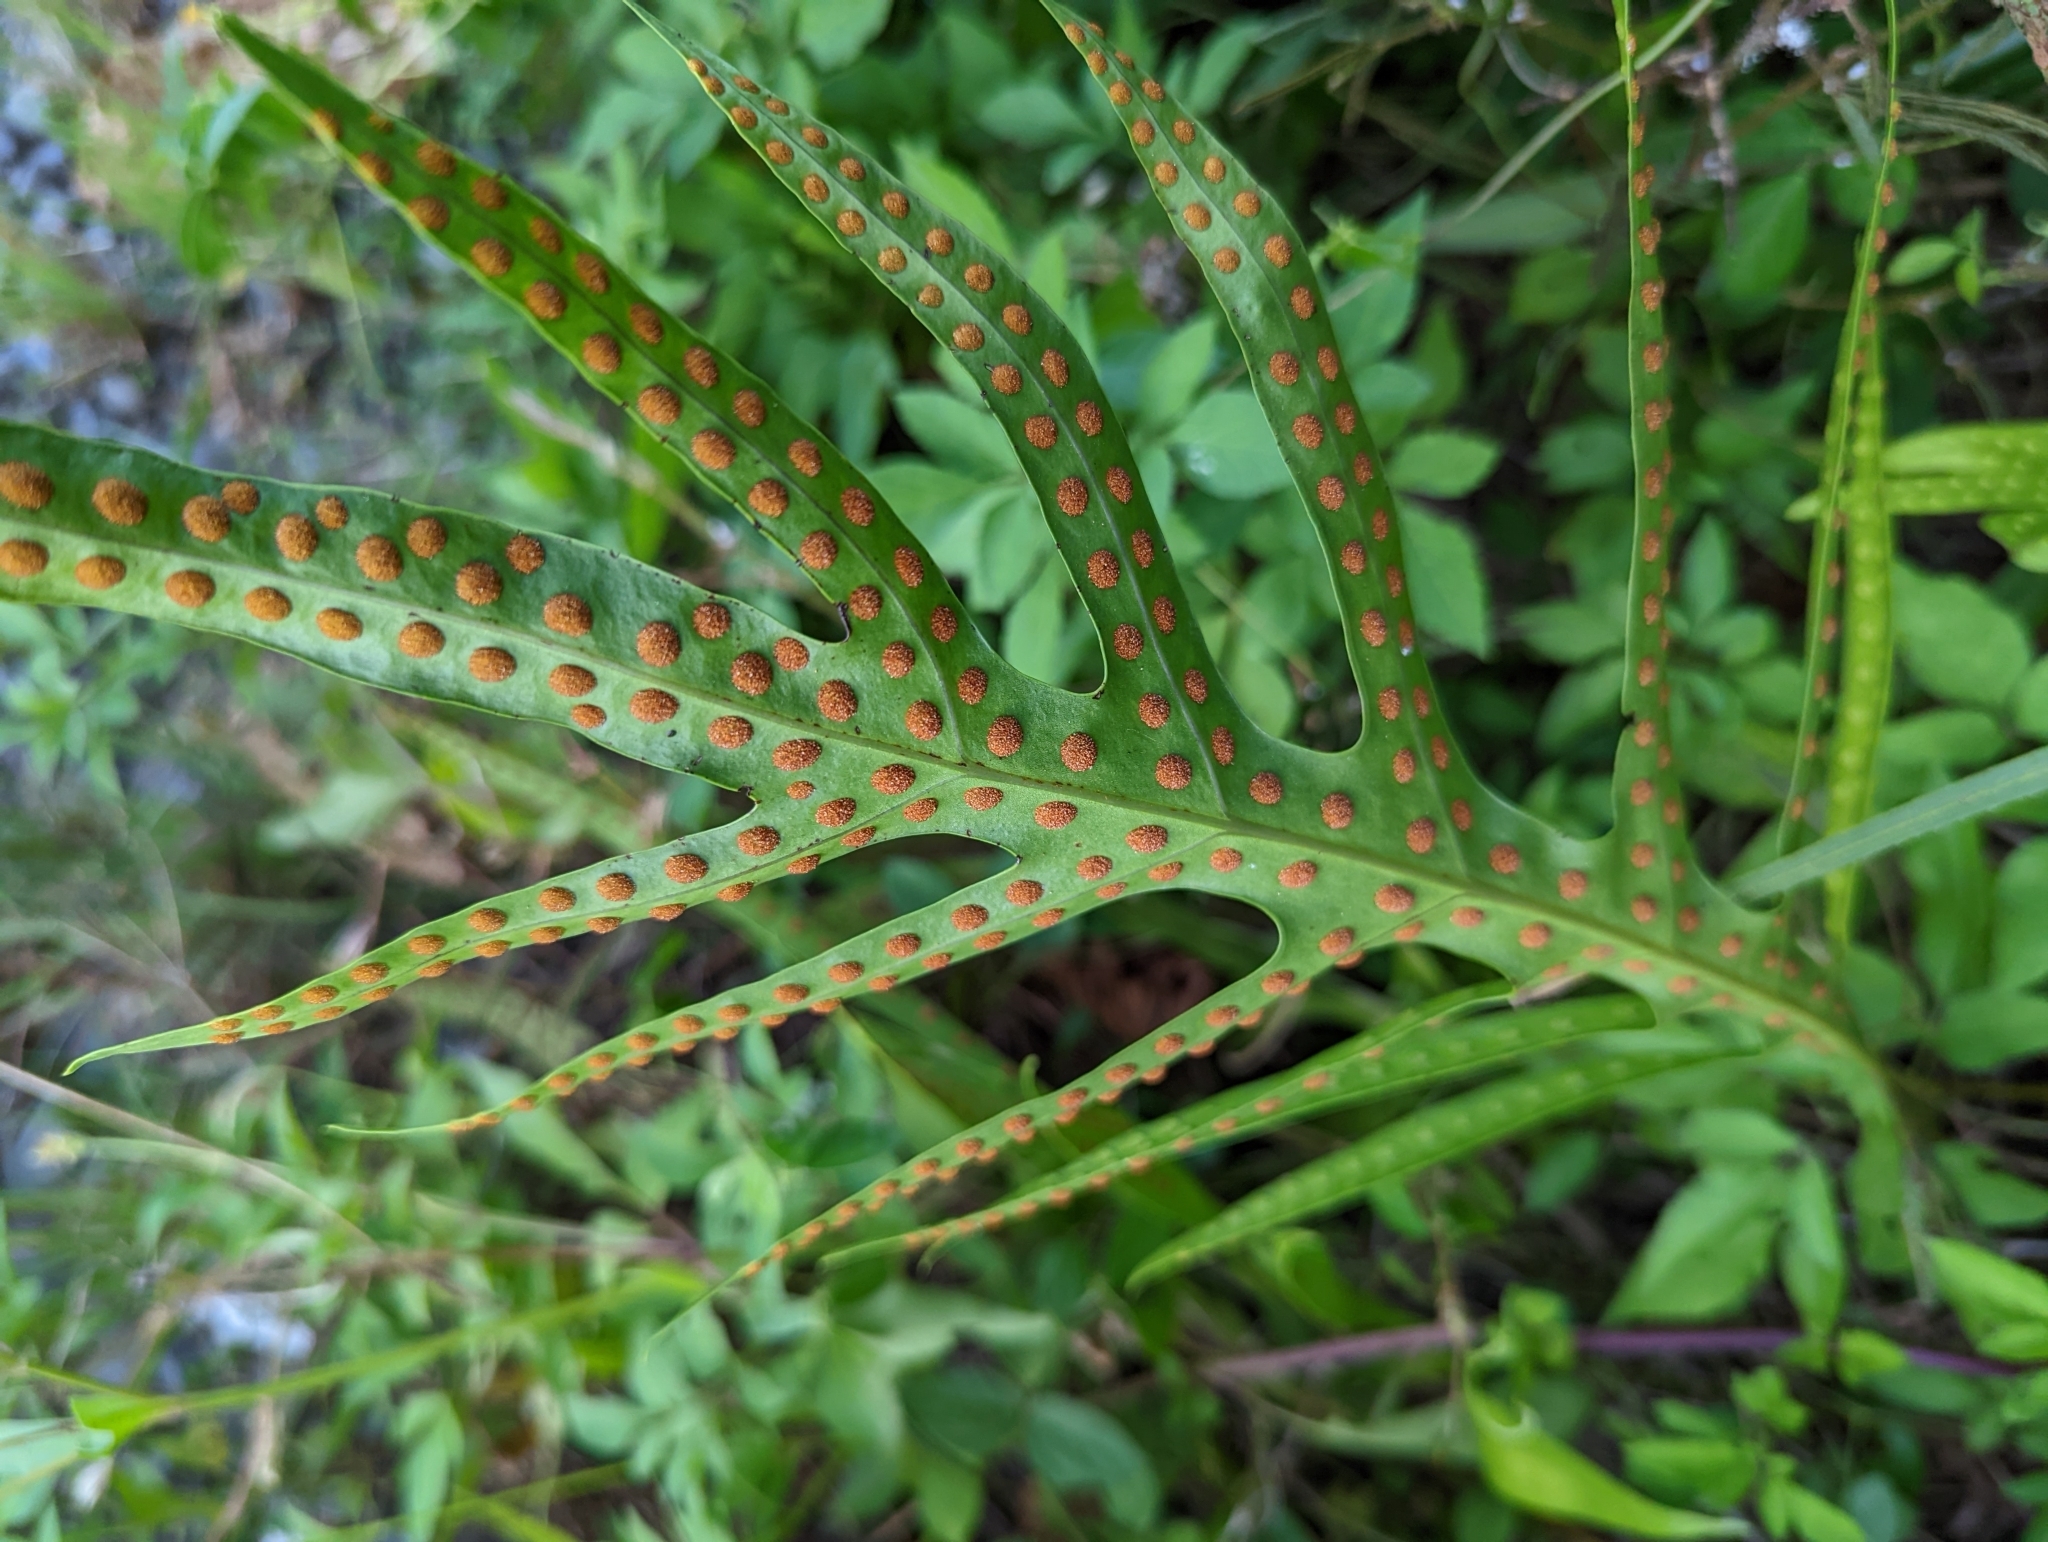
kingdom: Plantae
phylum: Tracheophyta
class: Polypodiopsida
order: Polypodiales
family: Polypodiaceae
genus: Microsorum
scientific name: Microsorum scolopendria
